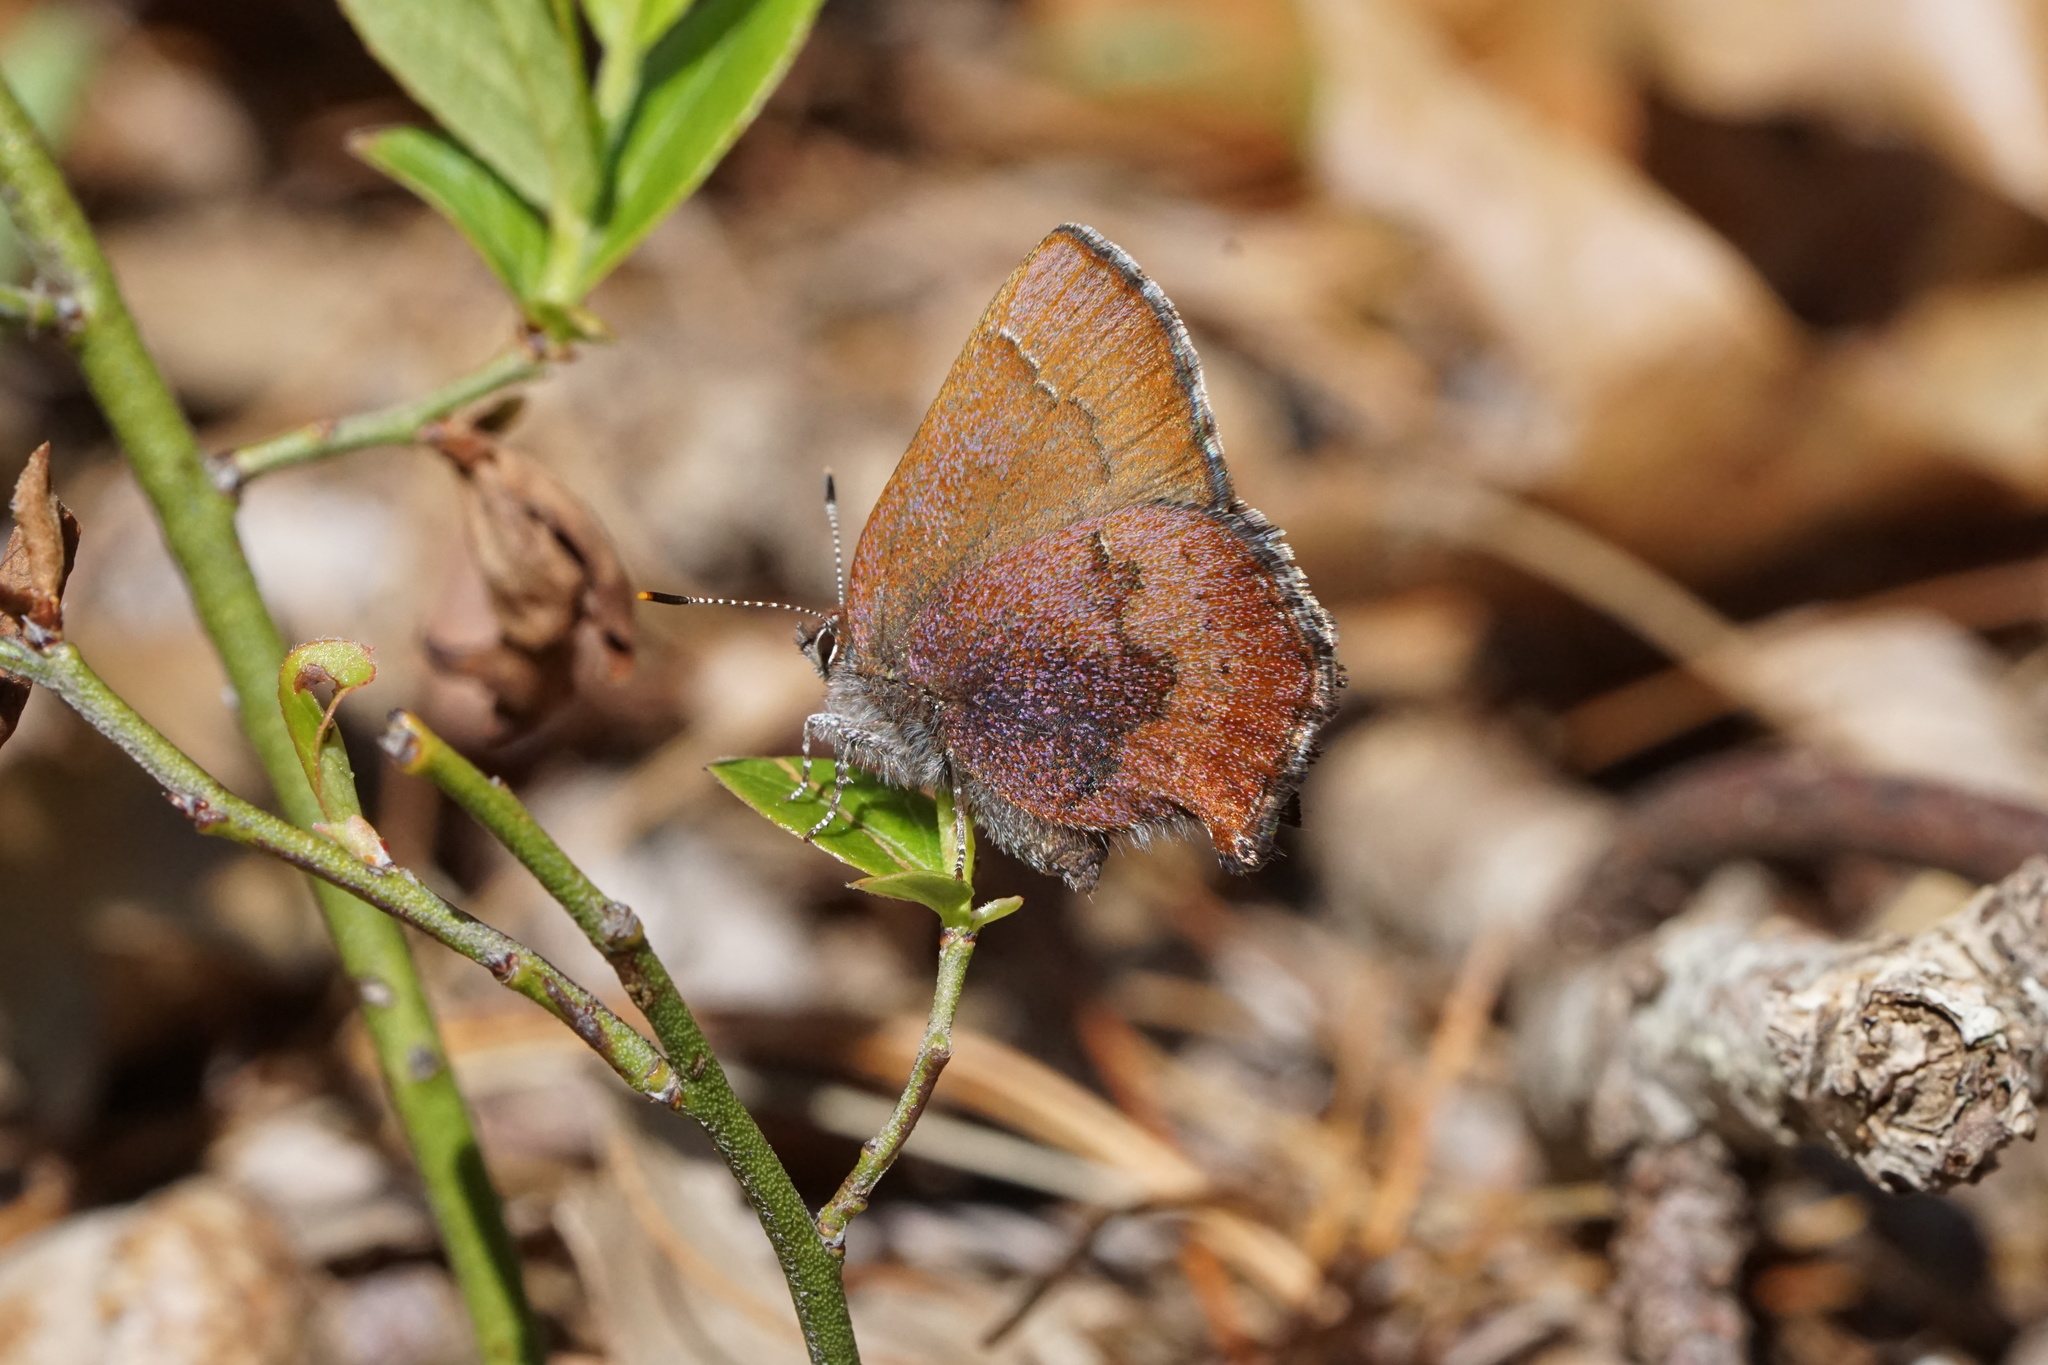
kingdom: Animalia
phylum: Arthropoda
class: Insecta
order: Lepidoptera
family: Lycaenidae
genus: Incisalia
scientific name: Incisalia irioides
